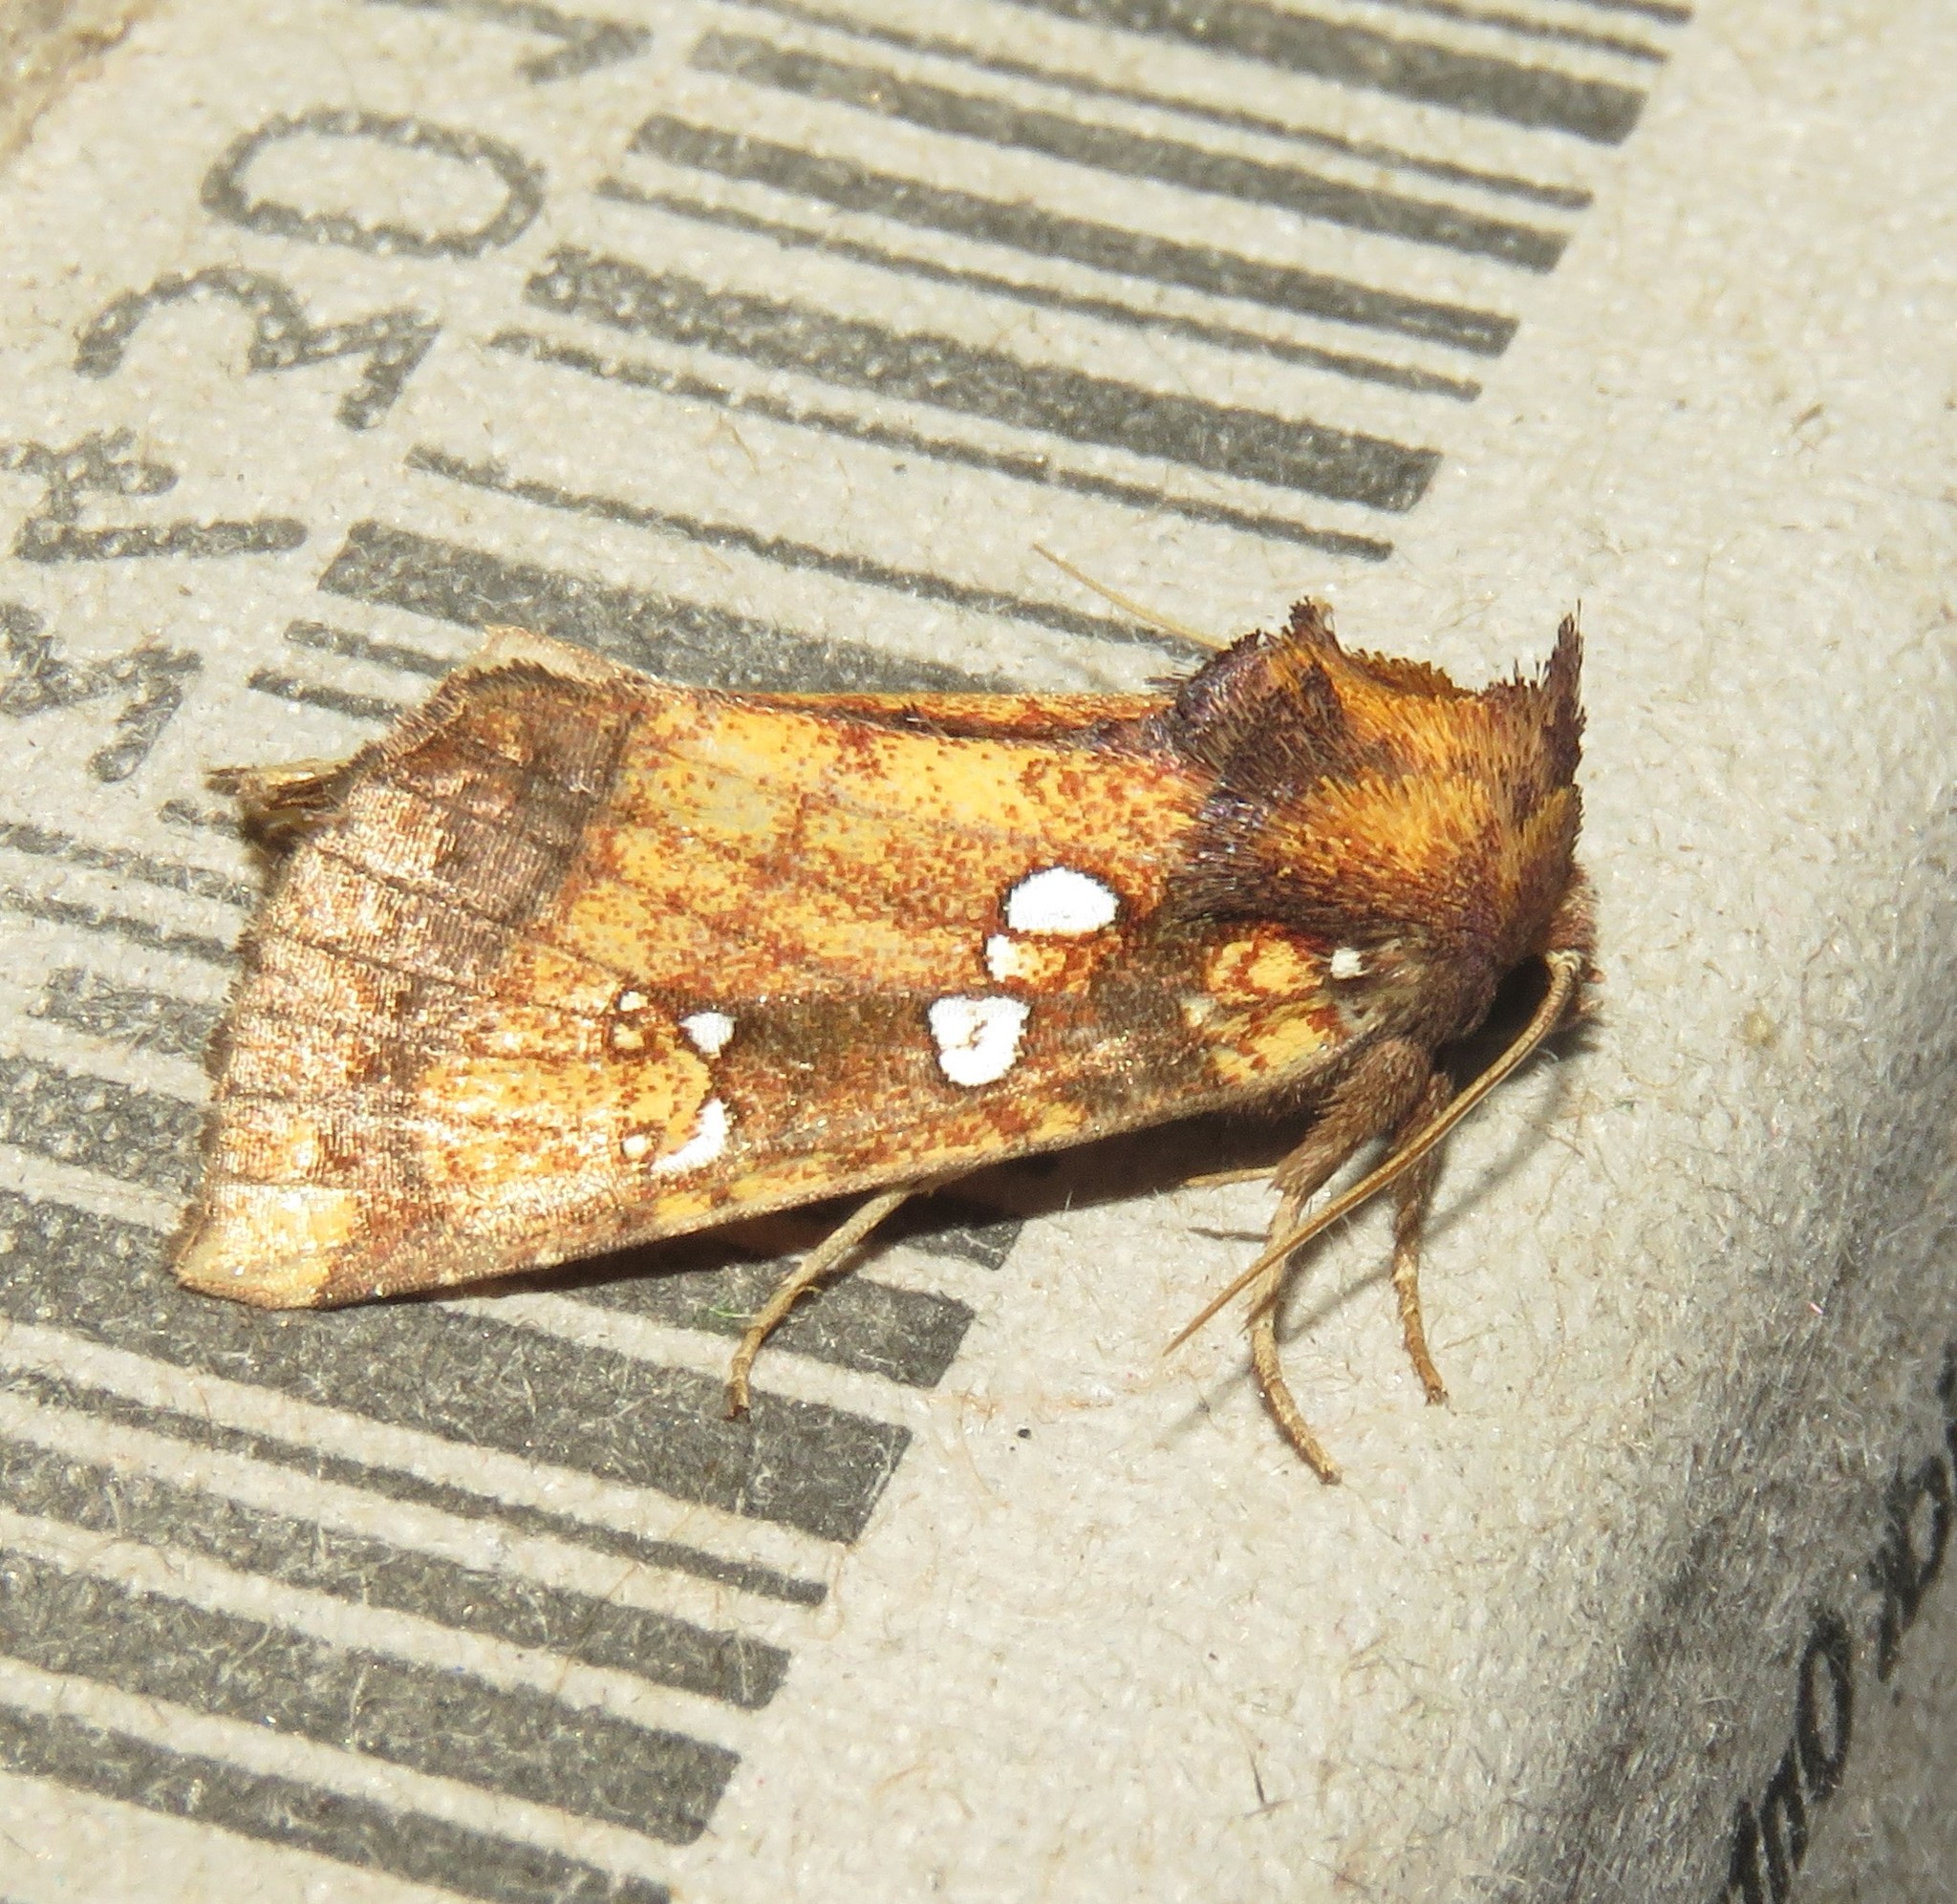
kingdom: Animalia
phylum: Arthropoda
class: Insecta
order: Lepidoptera
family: Noctuidae
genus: Papaipema
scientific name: Papaipema arctivorens
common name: Northern burdock borer moth
